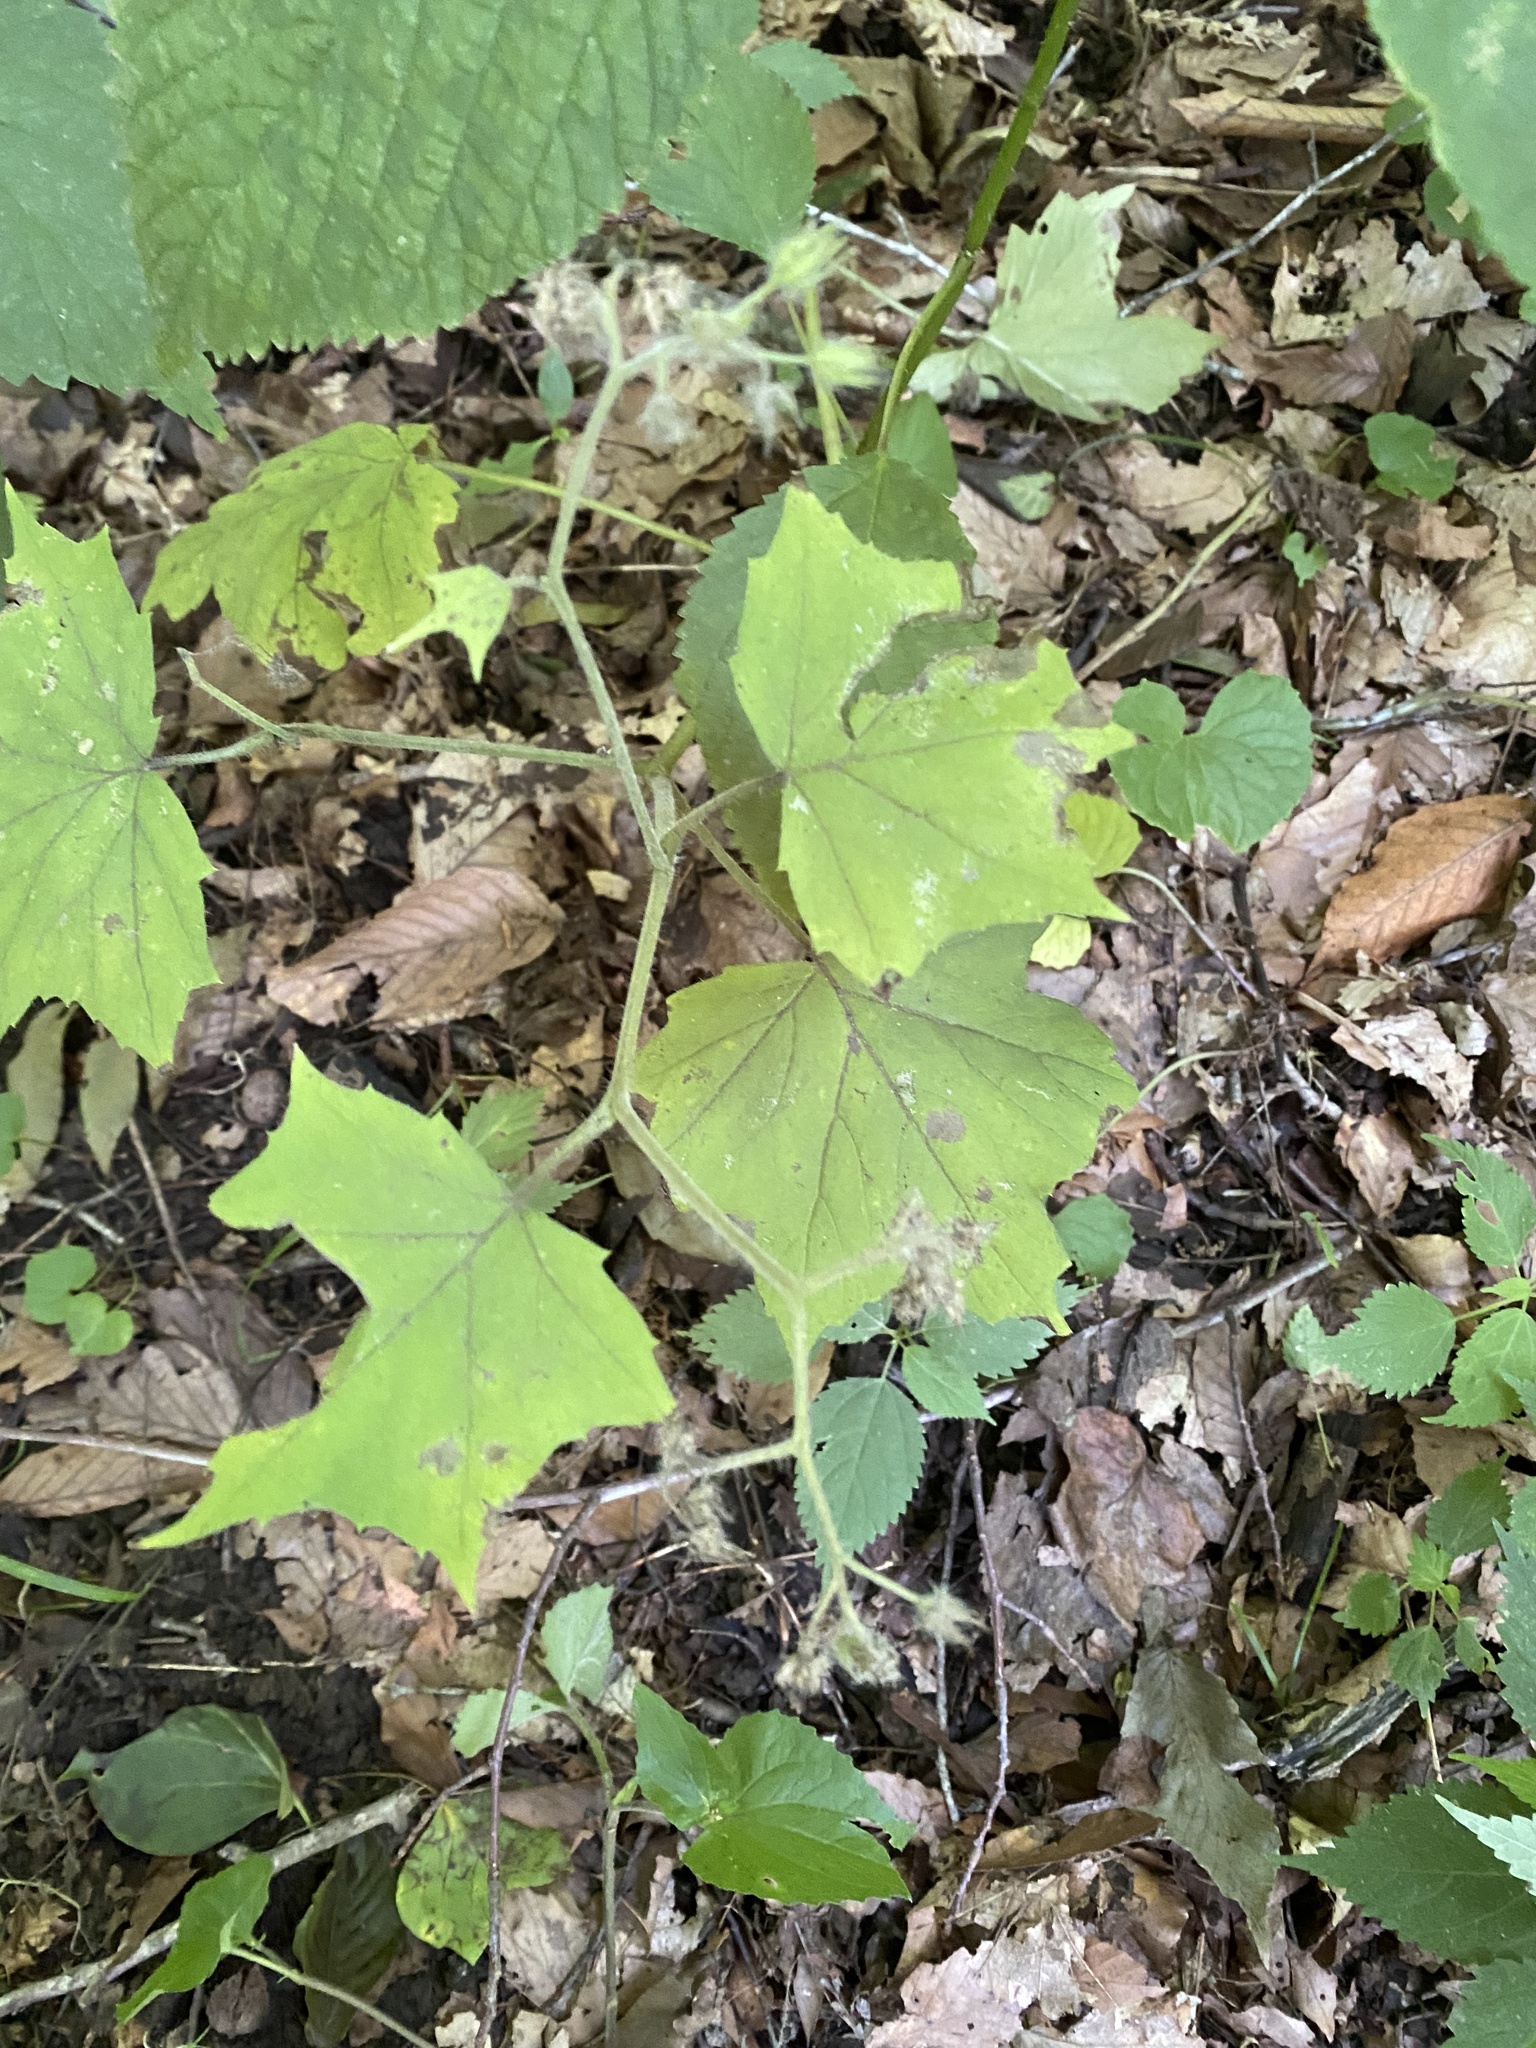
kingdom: Plantae
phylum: Tracheophyta
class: Magnoliopsida
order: Boraginales
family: Hydrophyllaceae
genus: Hydrophyllum
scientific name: Hydrophyllum appendiculatum
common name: Appendaged waterleaf
